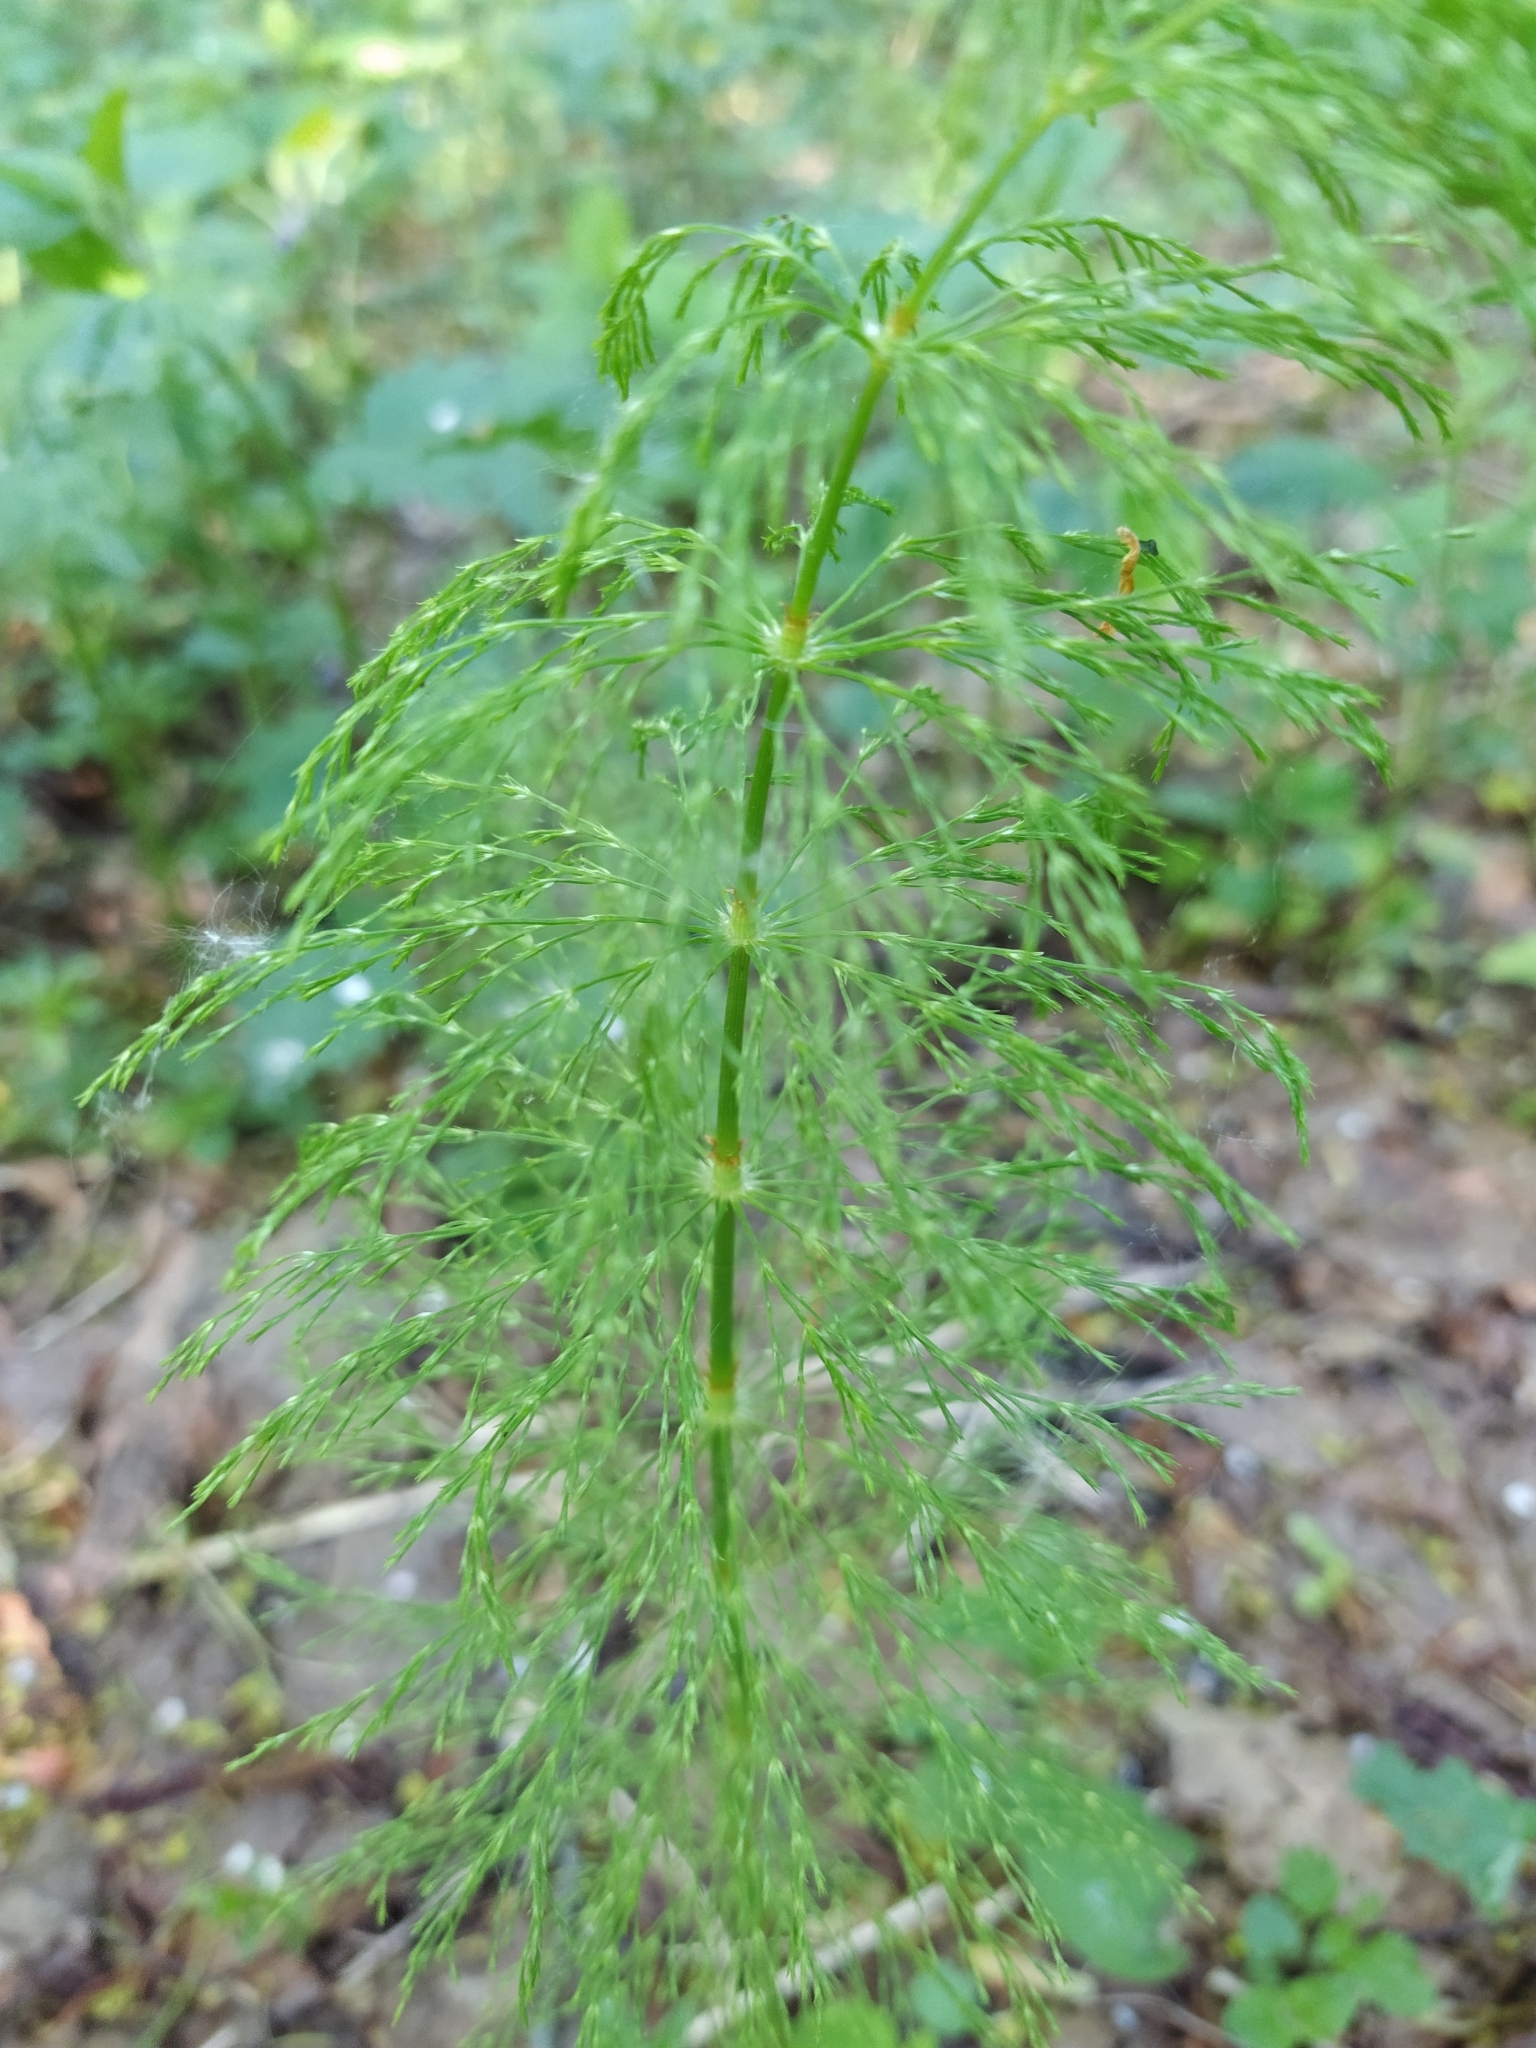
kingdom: Plantae
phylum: Tracheophyta
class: Polypodiopsida
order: Equisetales
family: Equisetaceae
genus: Equisetum
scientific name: Equisetum sylvaticum
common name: Wood horsetail
